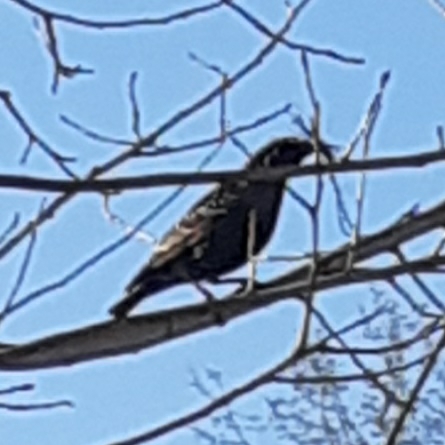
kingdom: Animalia
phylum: Chordata
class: Aves
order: Passeriformes
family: Sturnidae
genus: Sturnus
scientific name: Sturnus vulgaris
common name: Common starling
